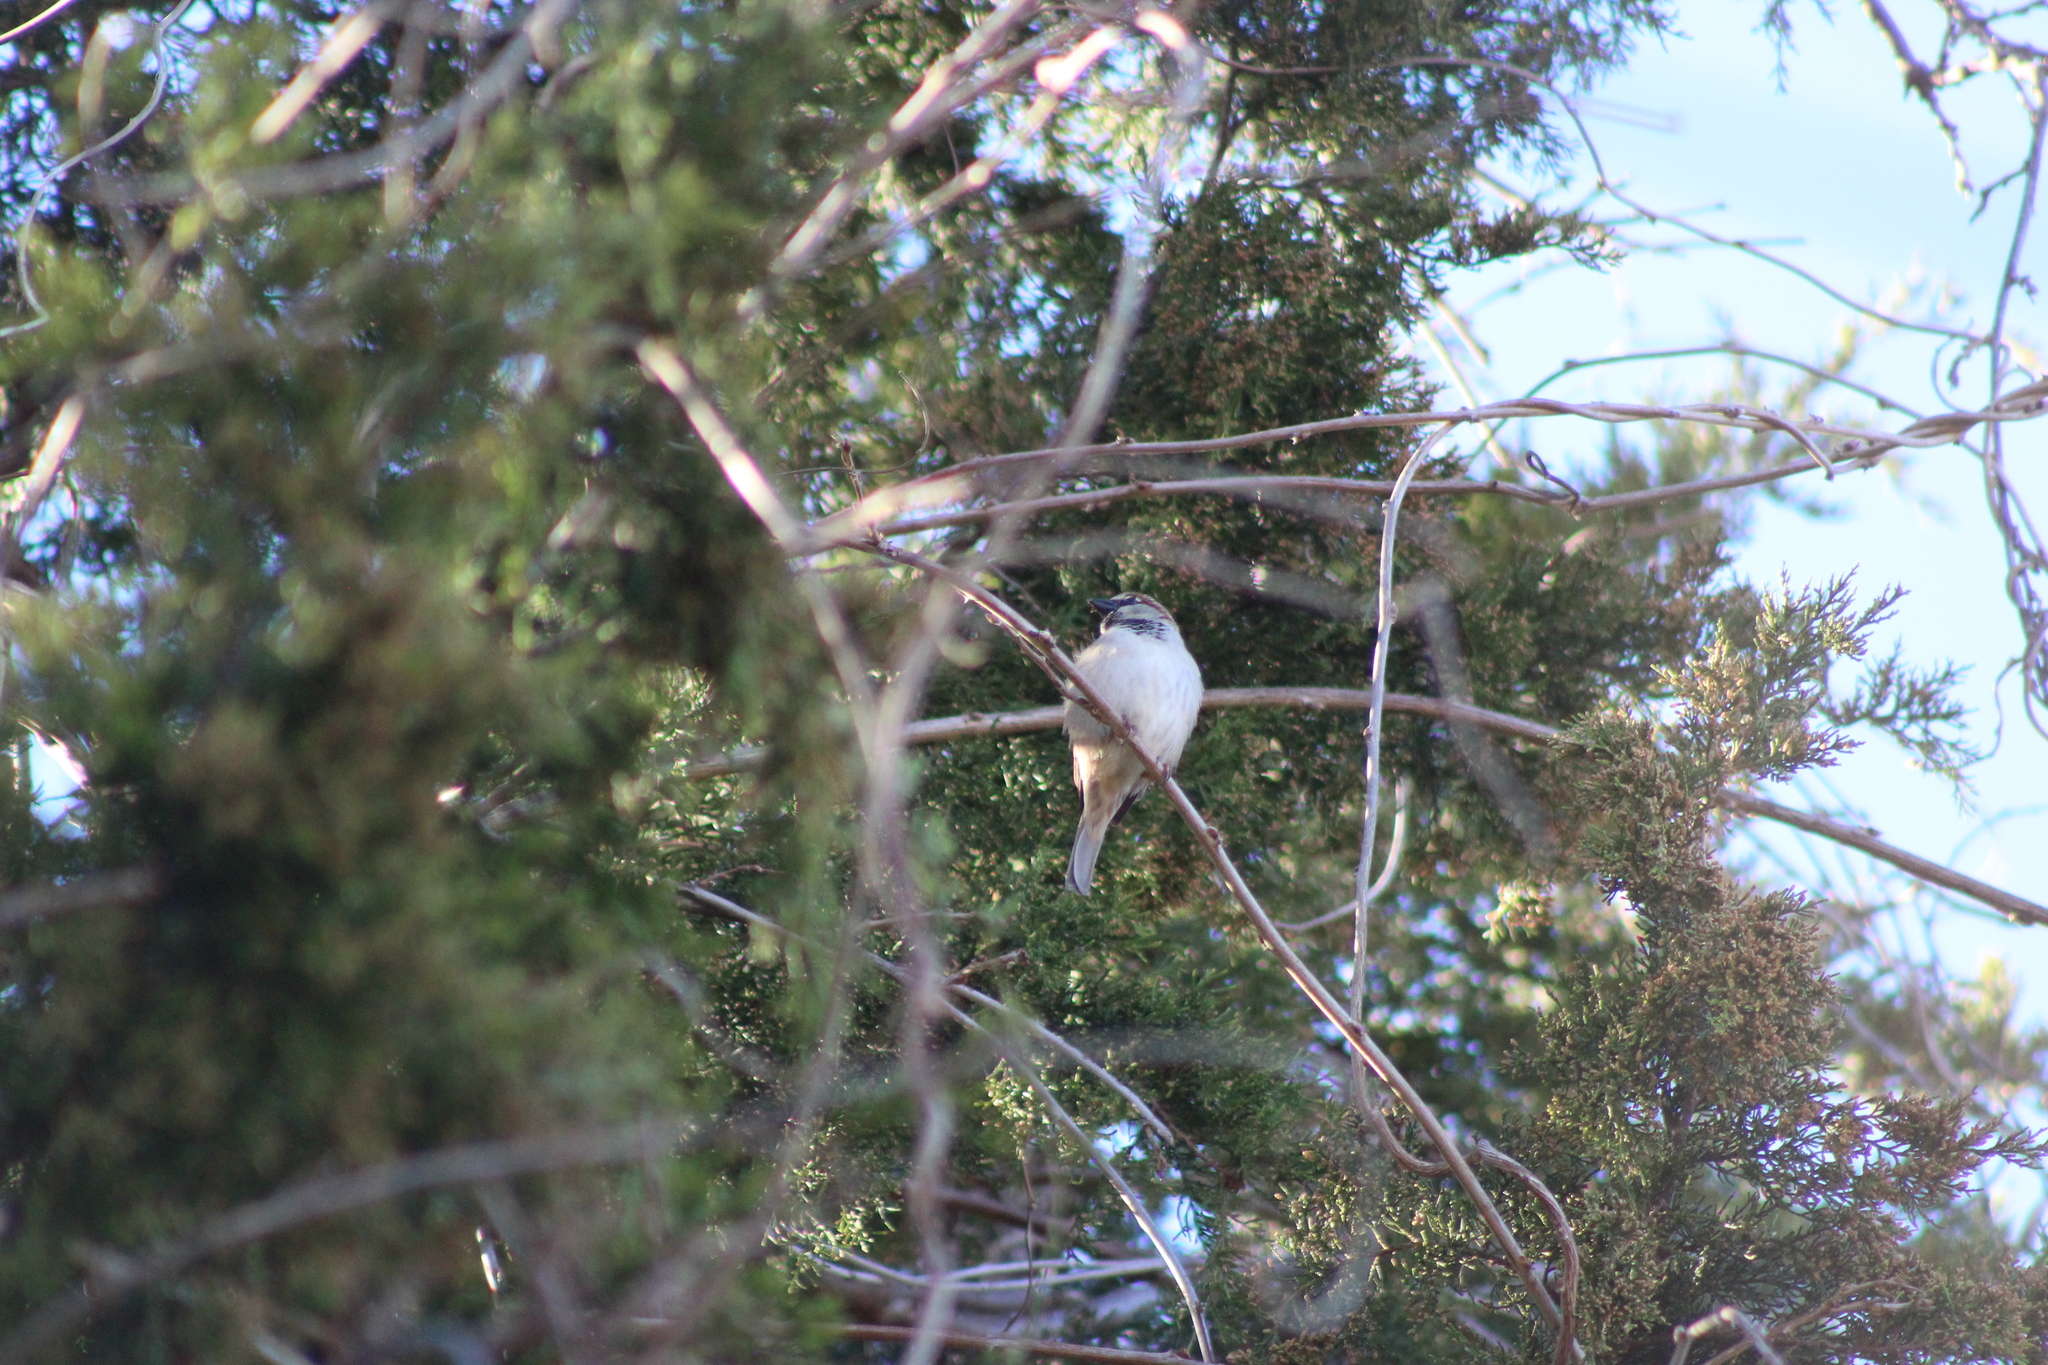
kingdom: Animalia
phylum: Chordata
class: Aves
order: Passeriformes
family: Passeridae
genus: Passer
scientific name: Passer domesticus
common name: House sparrow
